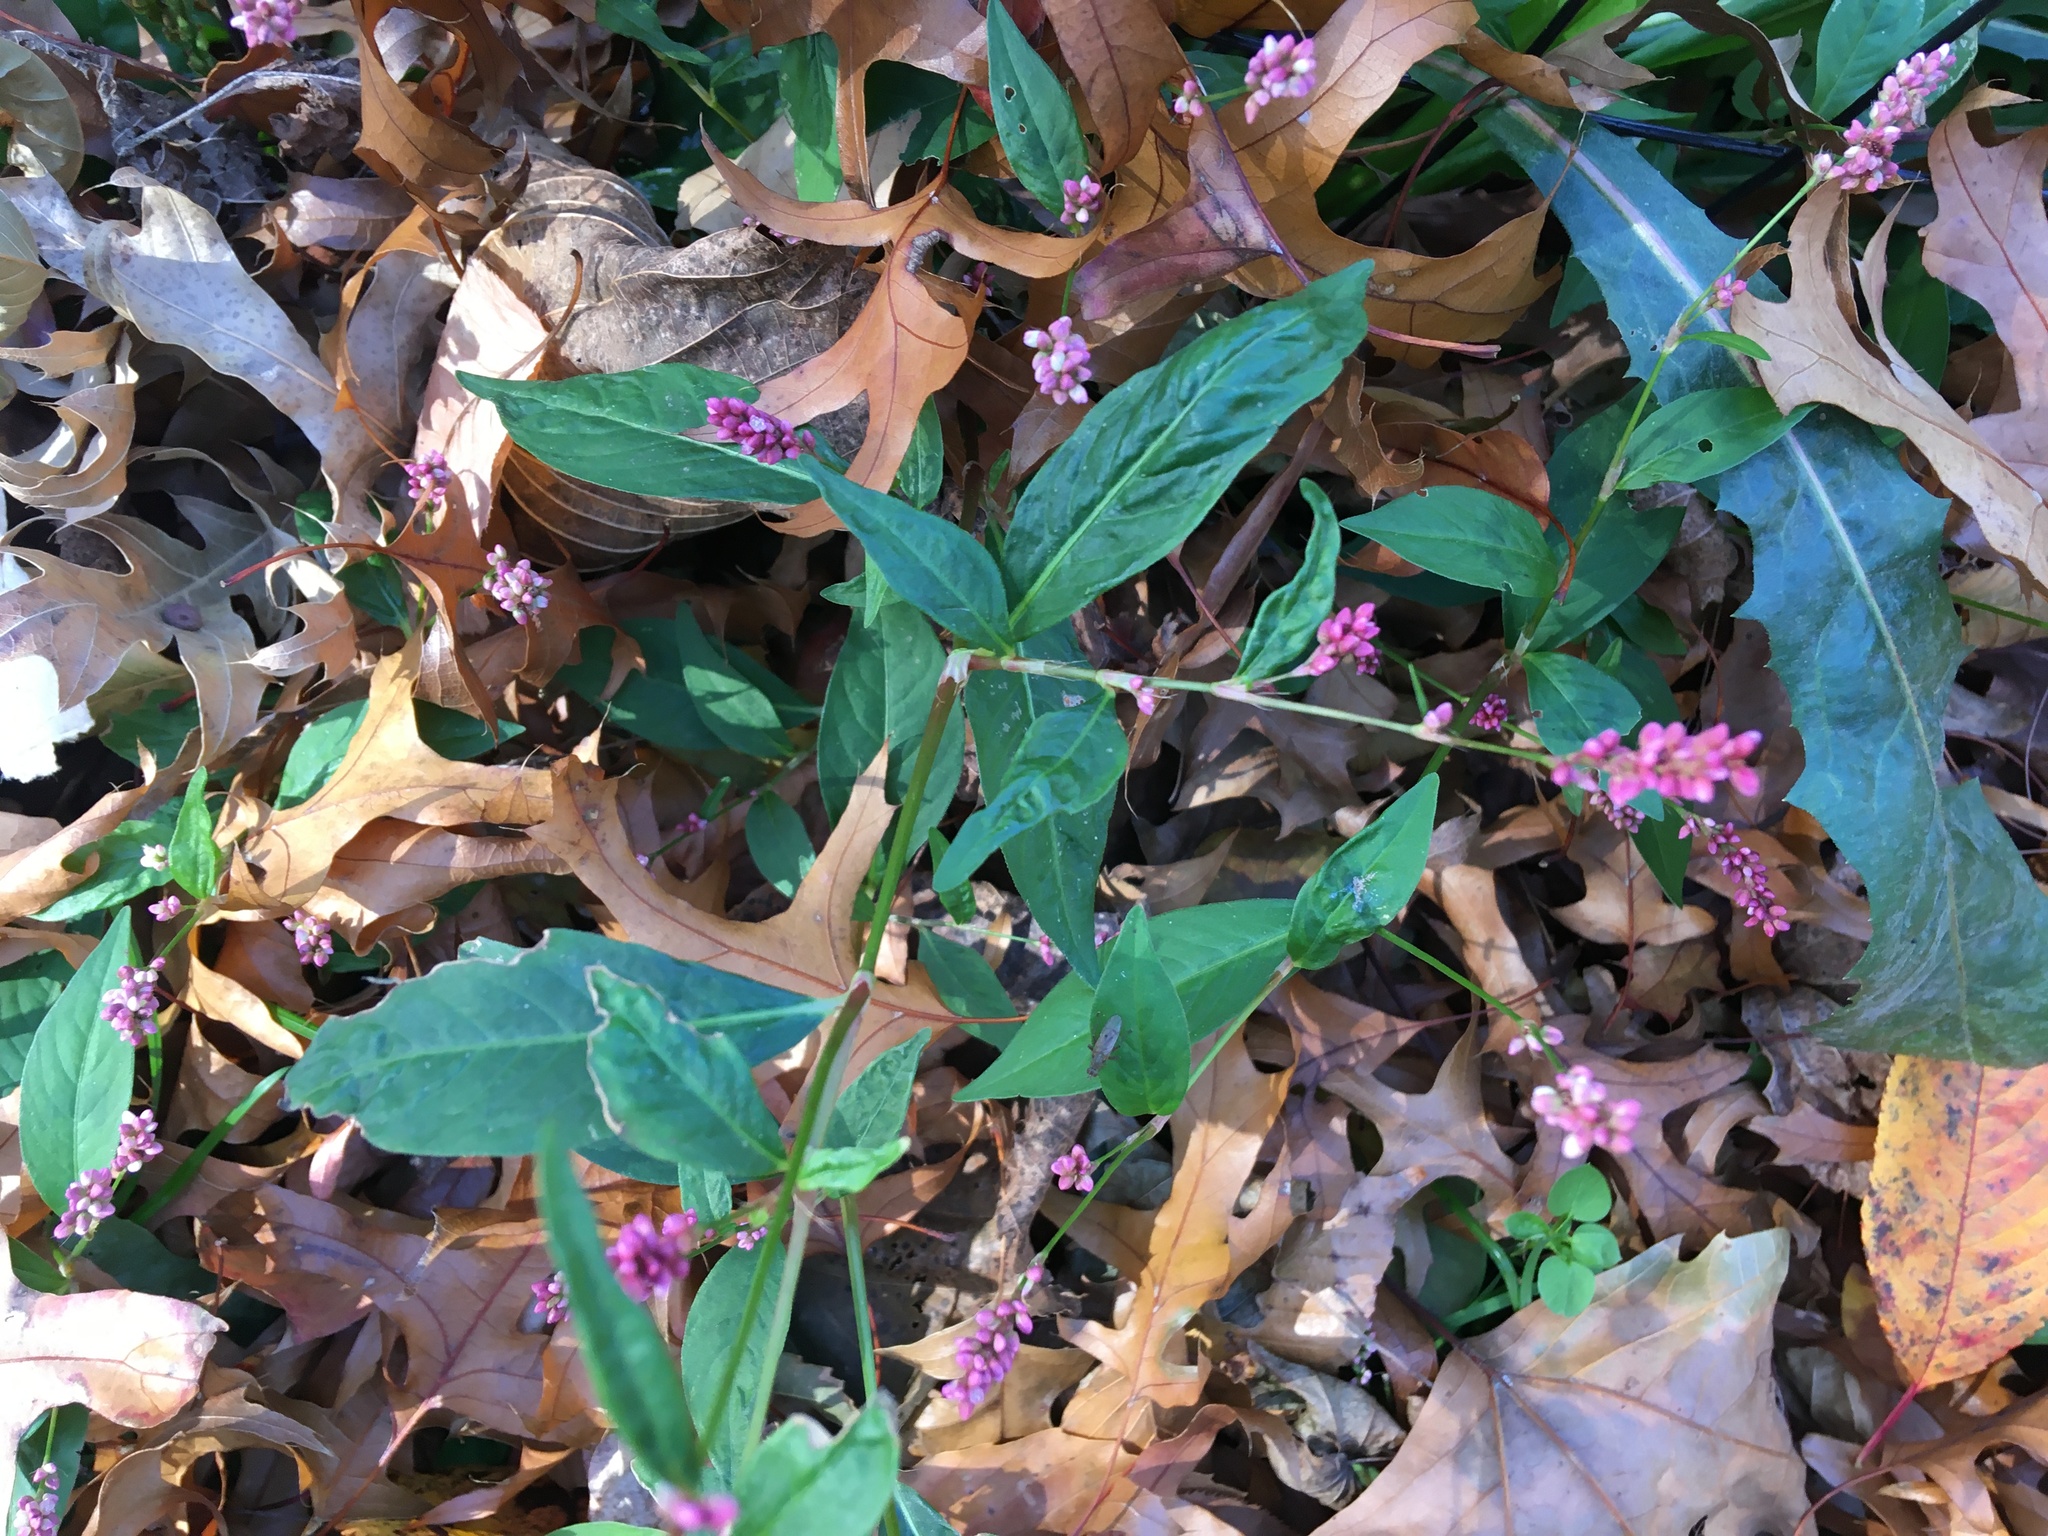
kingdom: Plantae
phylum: Tracheophyta
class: Magnoliopsida
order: Caryophyllales
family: Polygonaceae
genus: Persicaria
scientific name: Persicaria longiseta
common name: Bristly lady's-thumb
